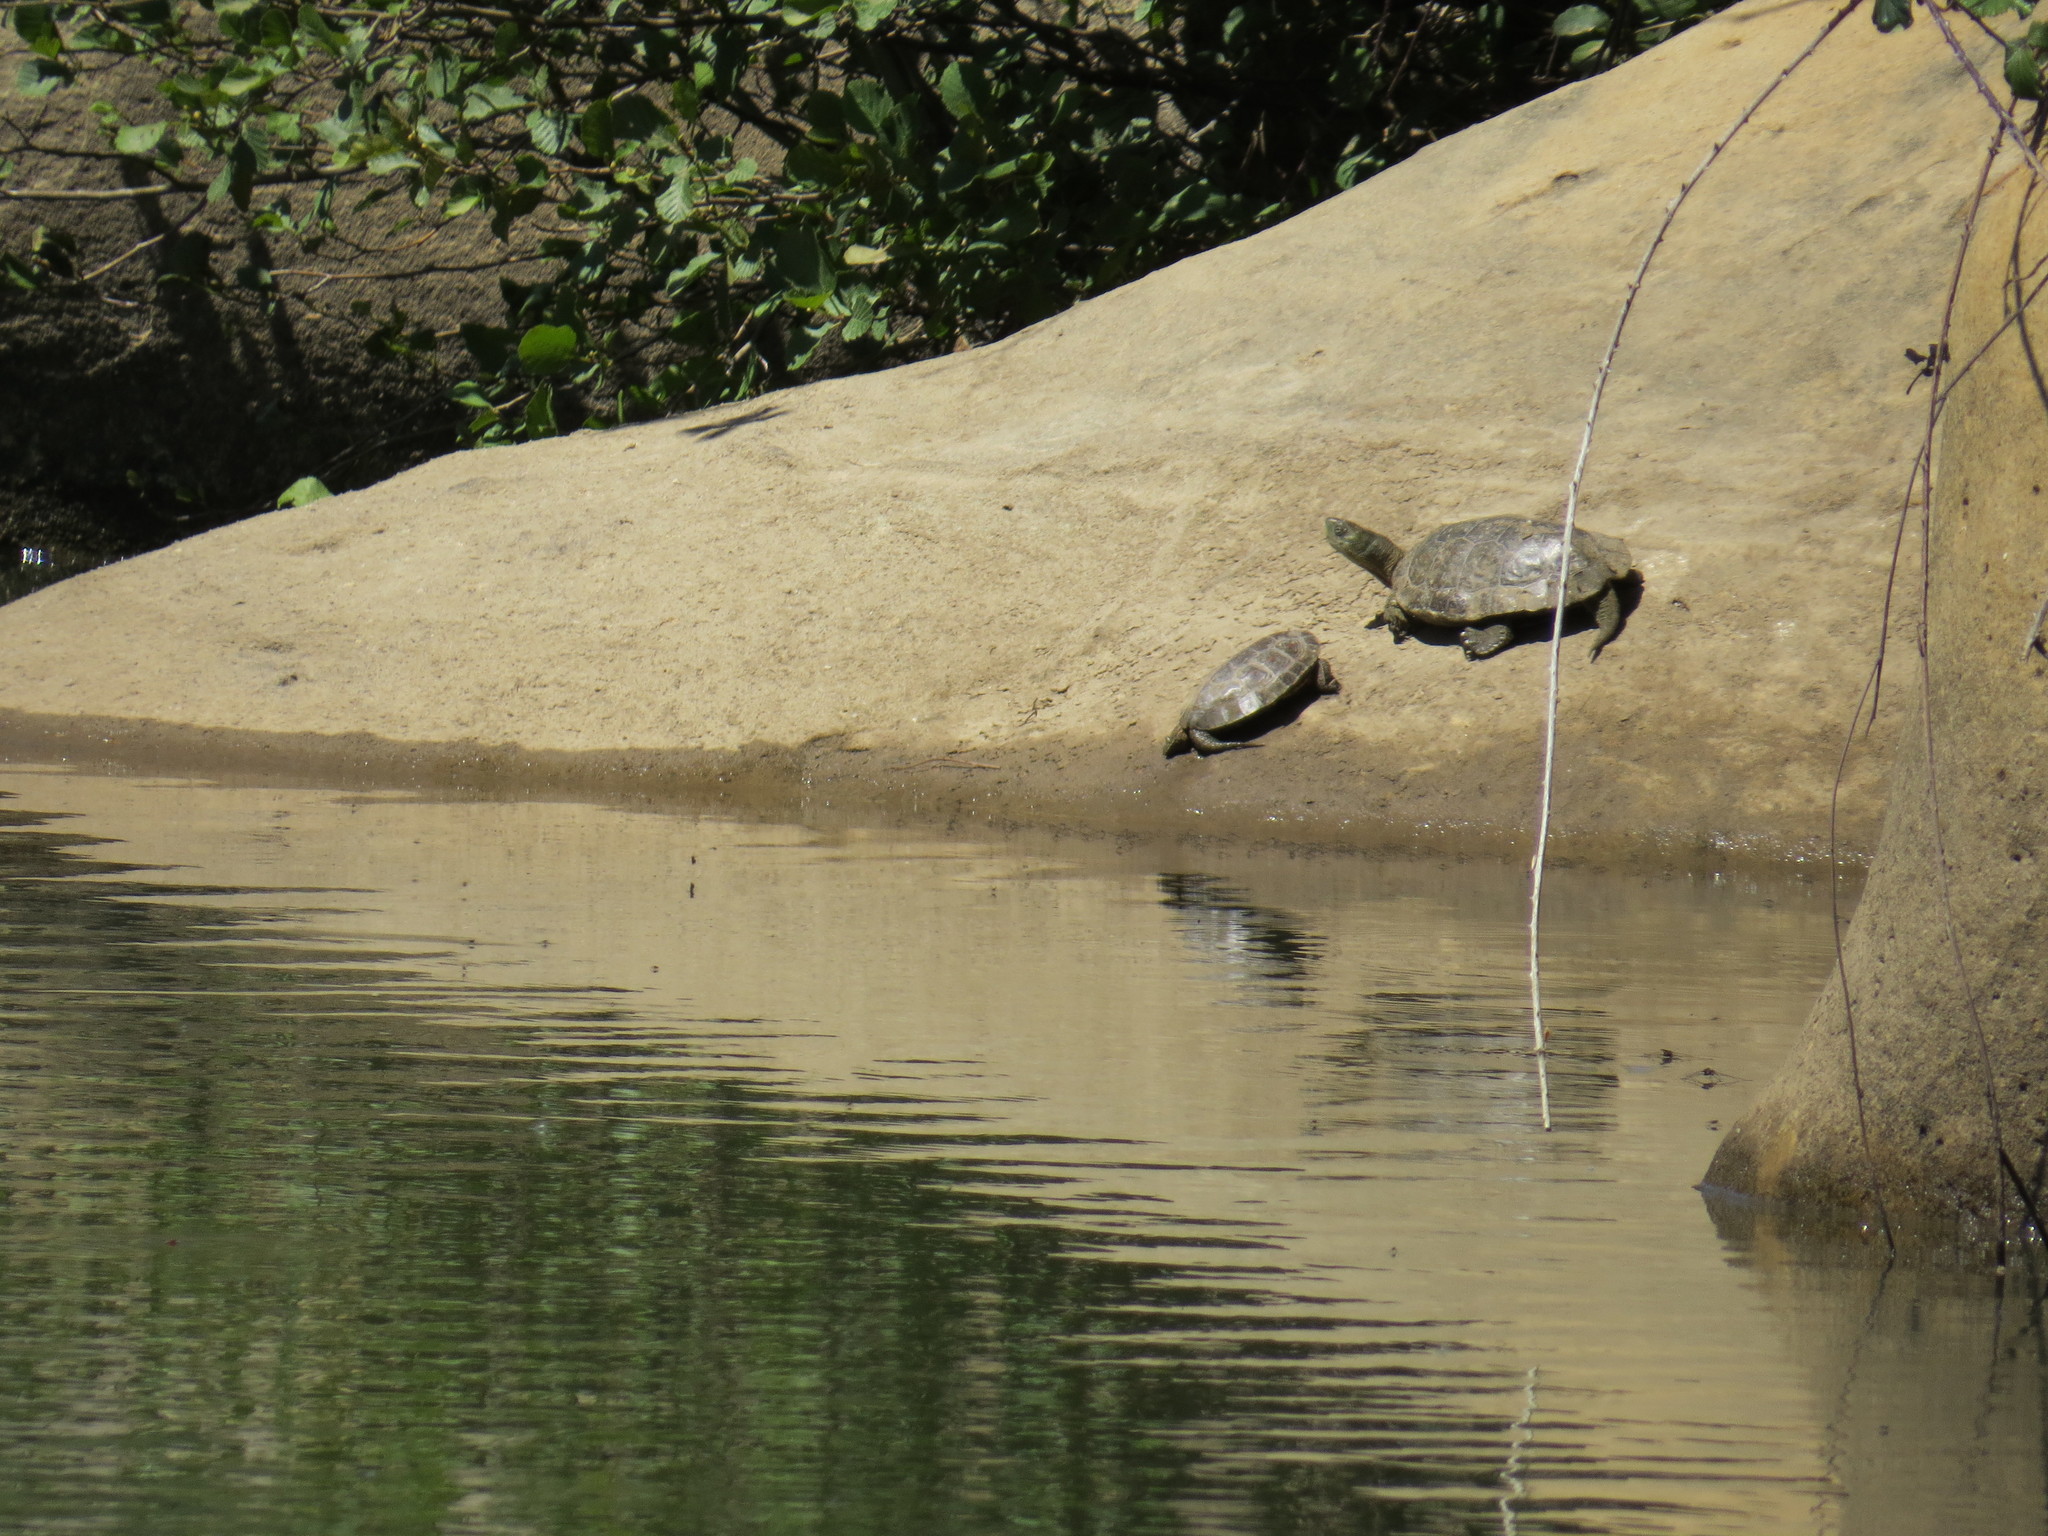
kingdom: Animalia
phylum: Chordata
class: Testudines
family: Geoemydidae
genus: Mauremys
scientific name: Mauremys leprosa
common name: Mediterranean pond turtle
